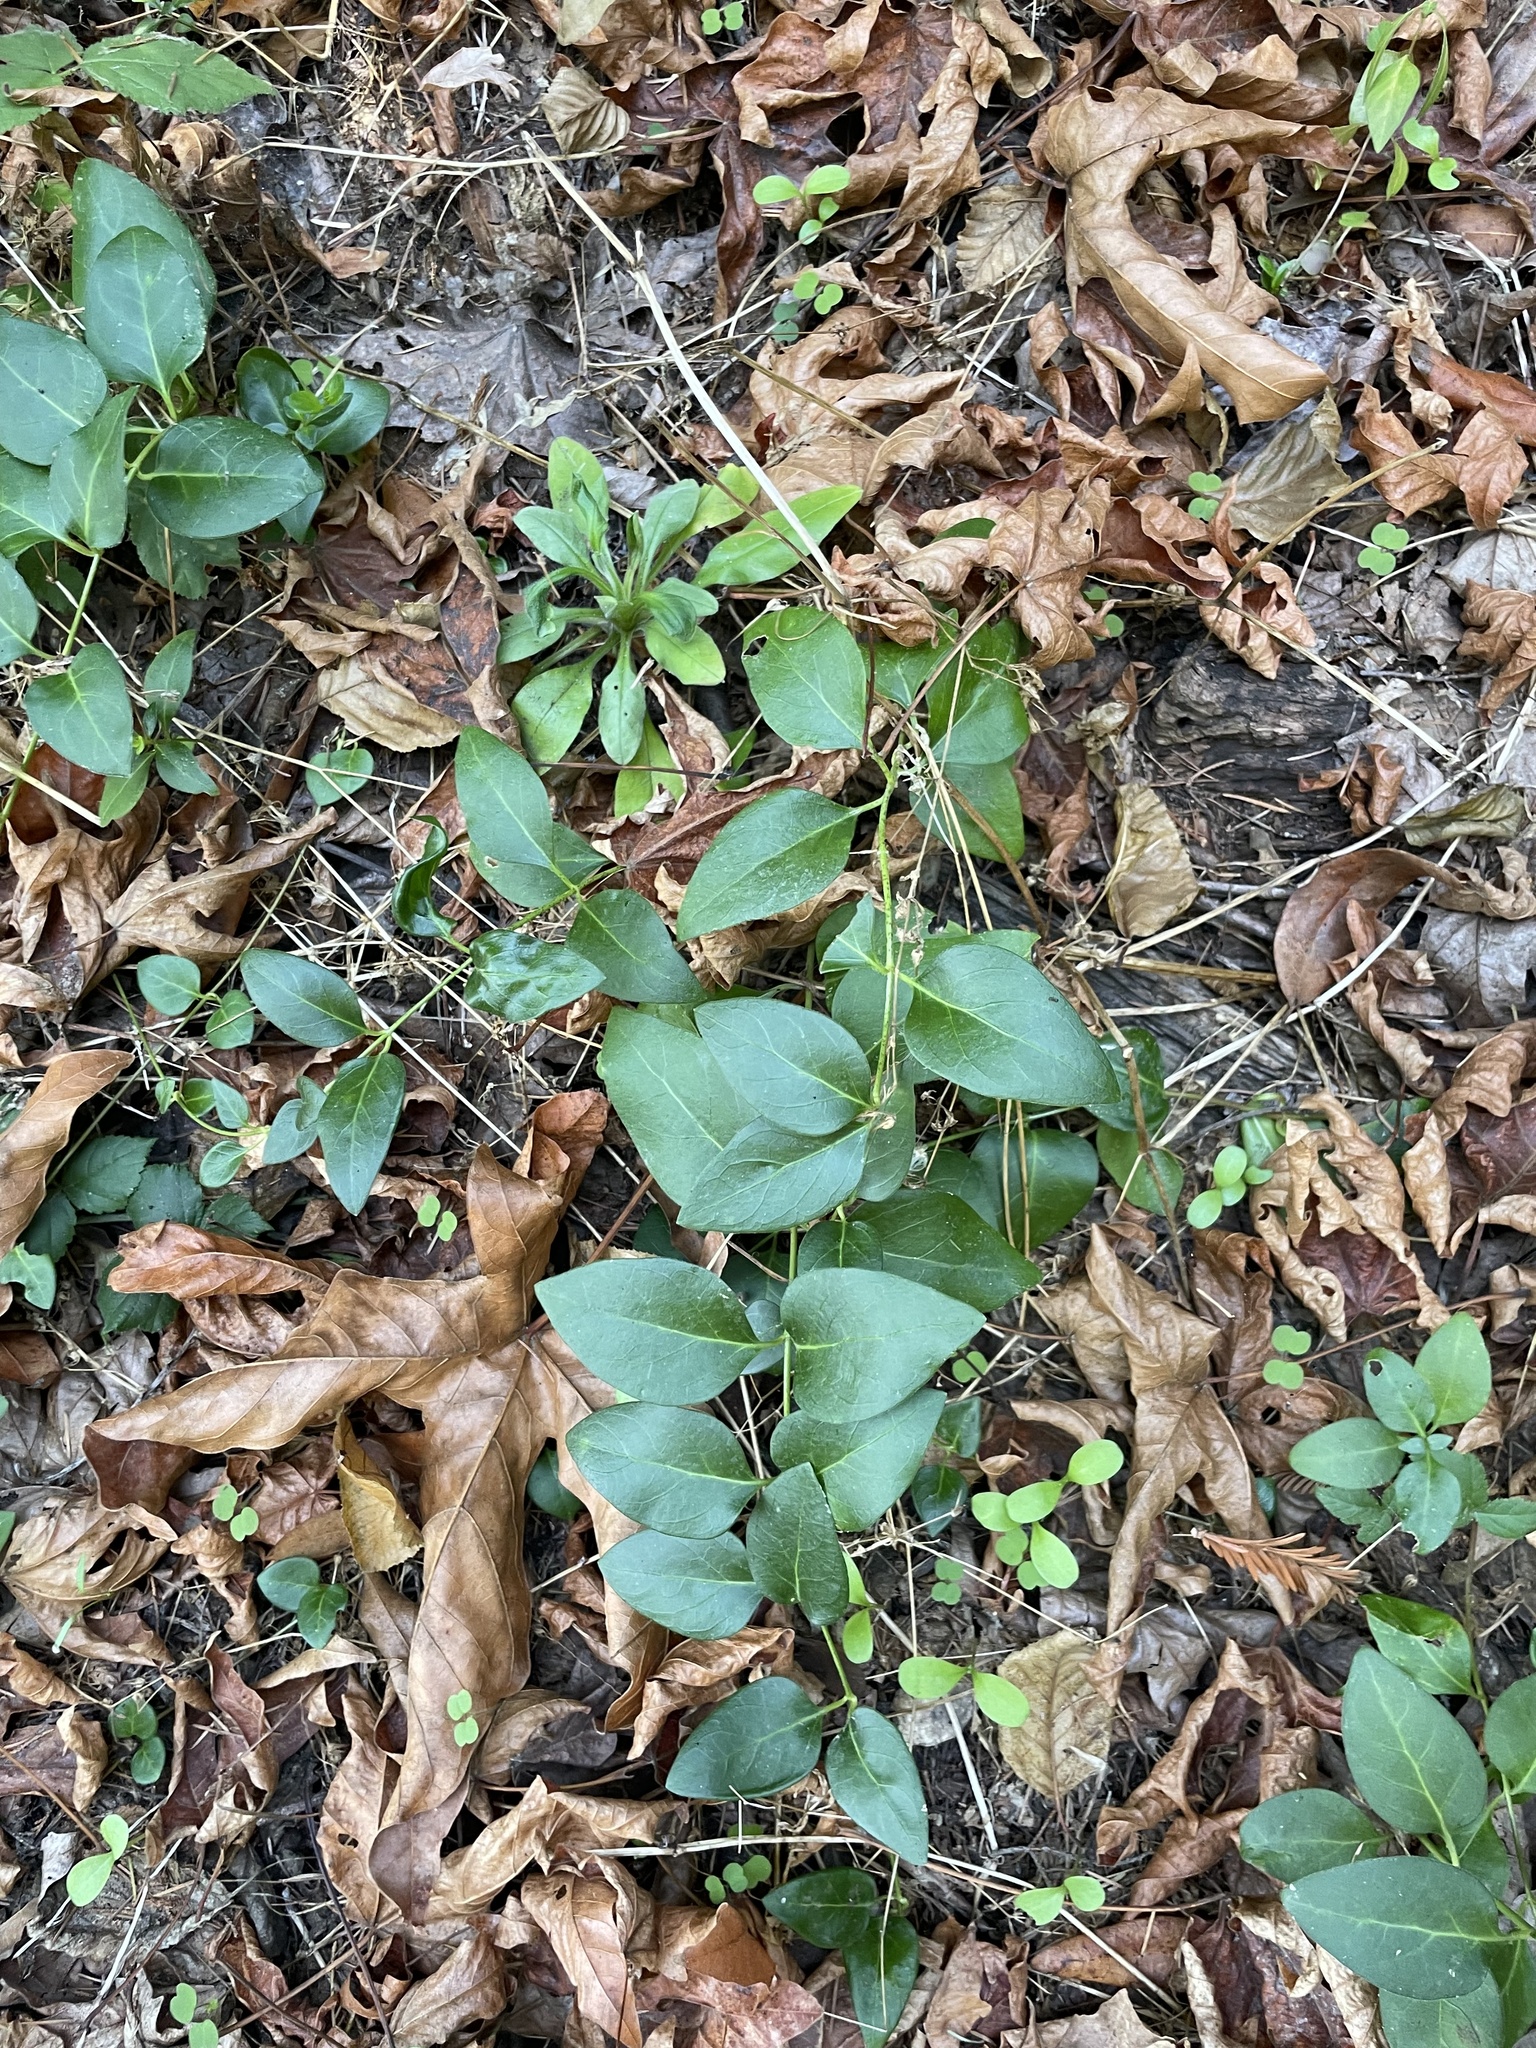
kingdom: Plantae
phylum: Tracheophyta
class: Magnoliopsida
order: Gentianales
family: Apocynaceae
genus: Vinca
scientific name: Vinca major
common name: Greater periwinkle
